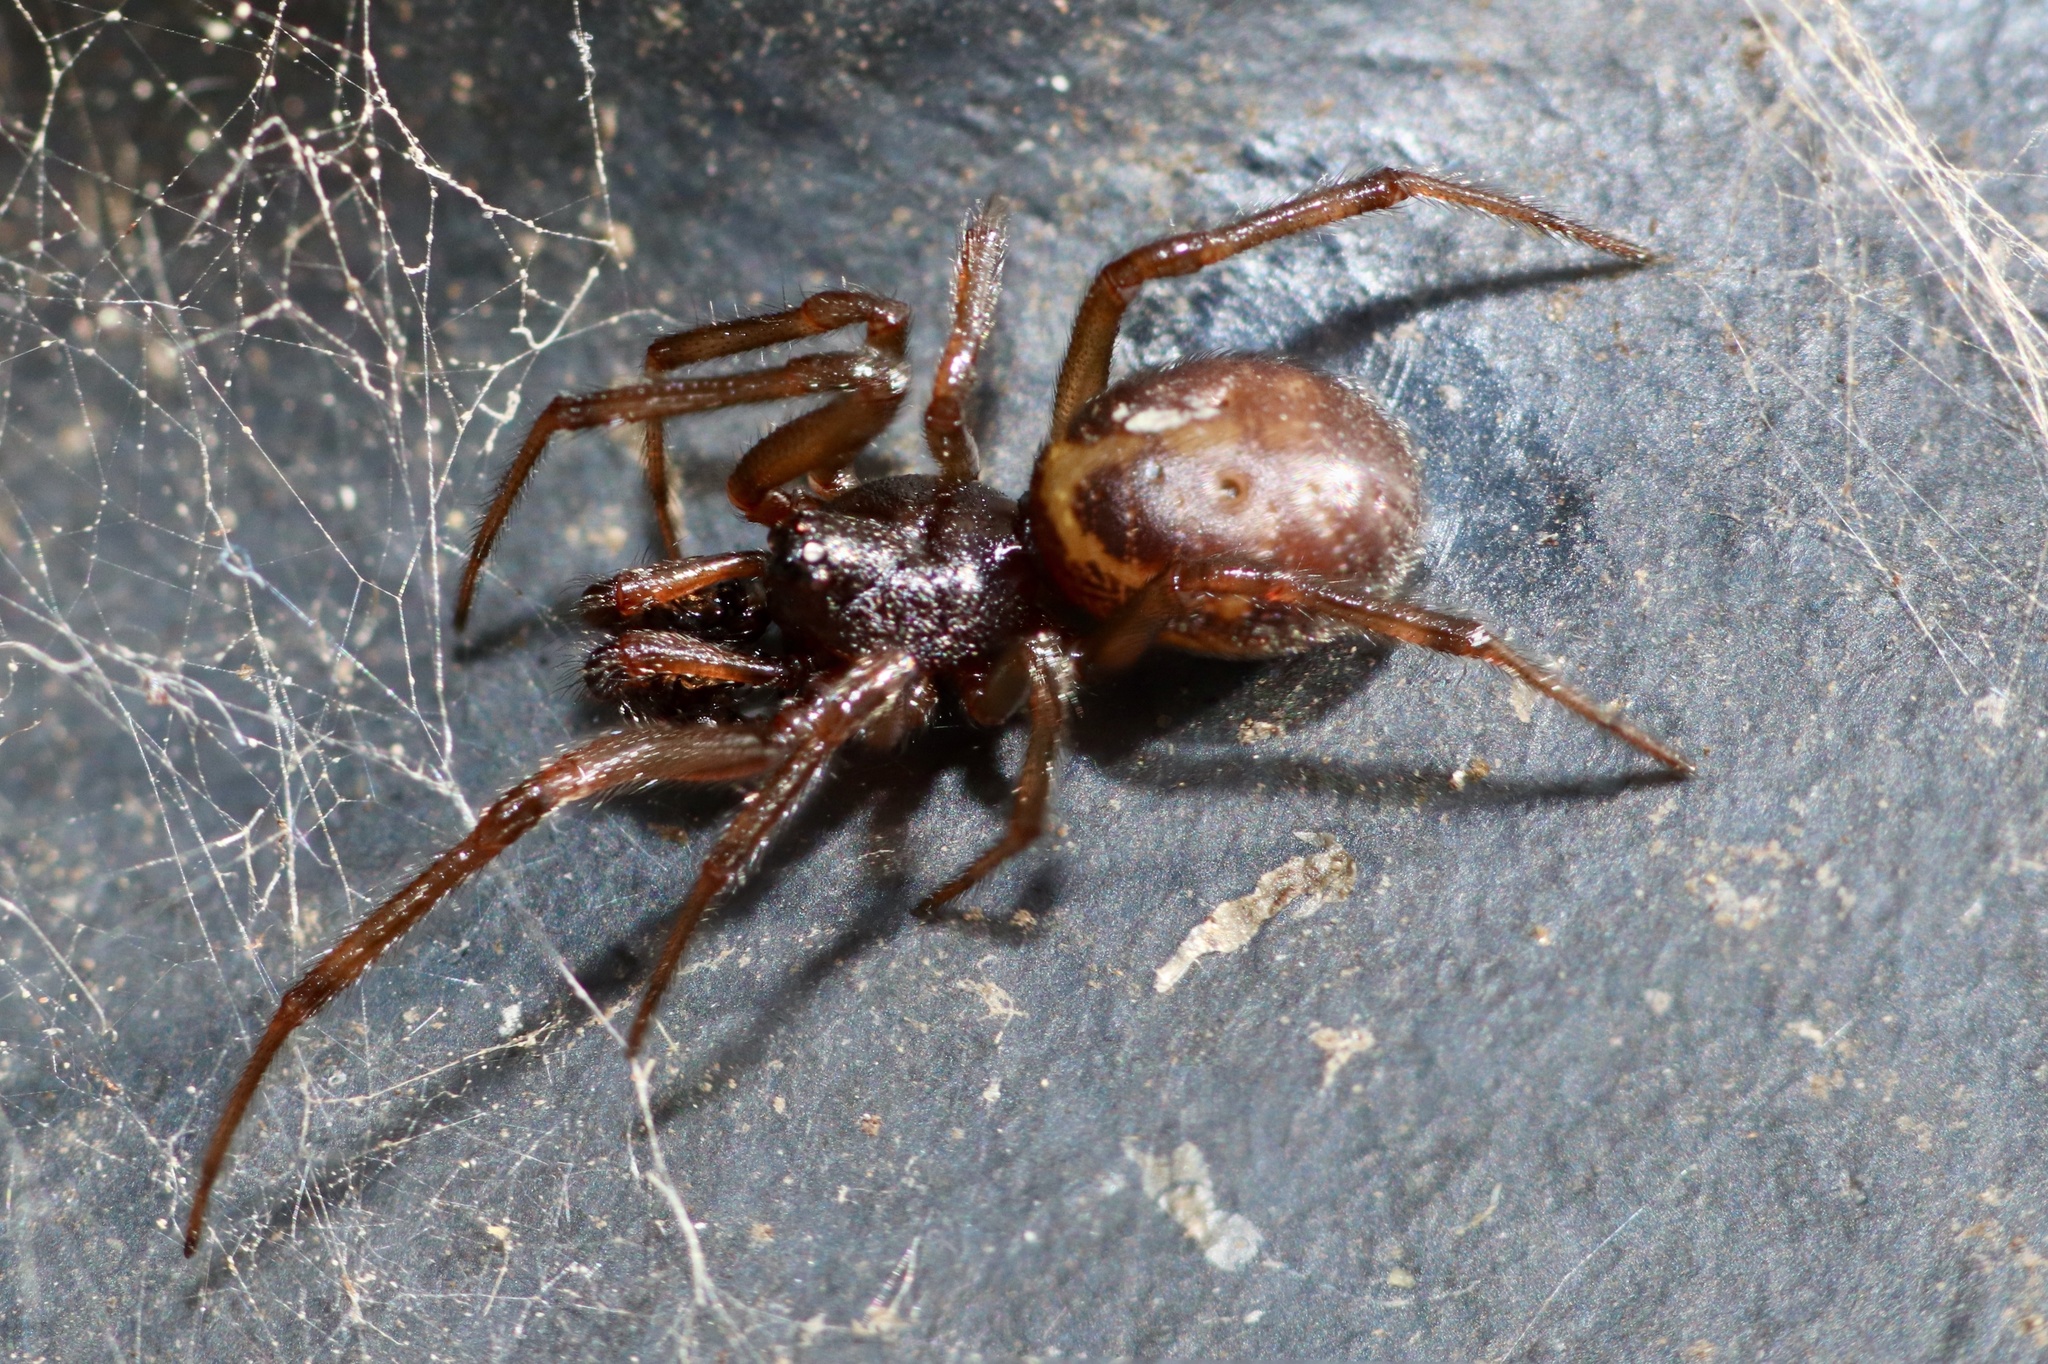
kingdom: Animalia
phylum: Arthropoda
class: Arachnida
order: Araneae
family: Theridiidae
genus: Steatoda
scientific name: Steatoda borealis
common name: Boreal combfoot
